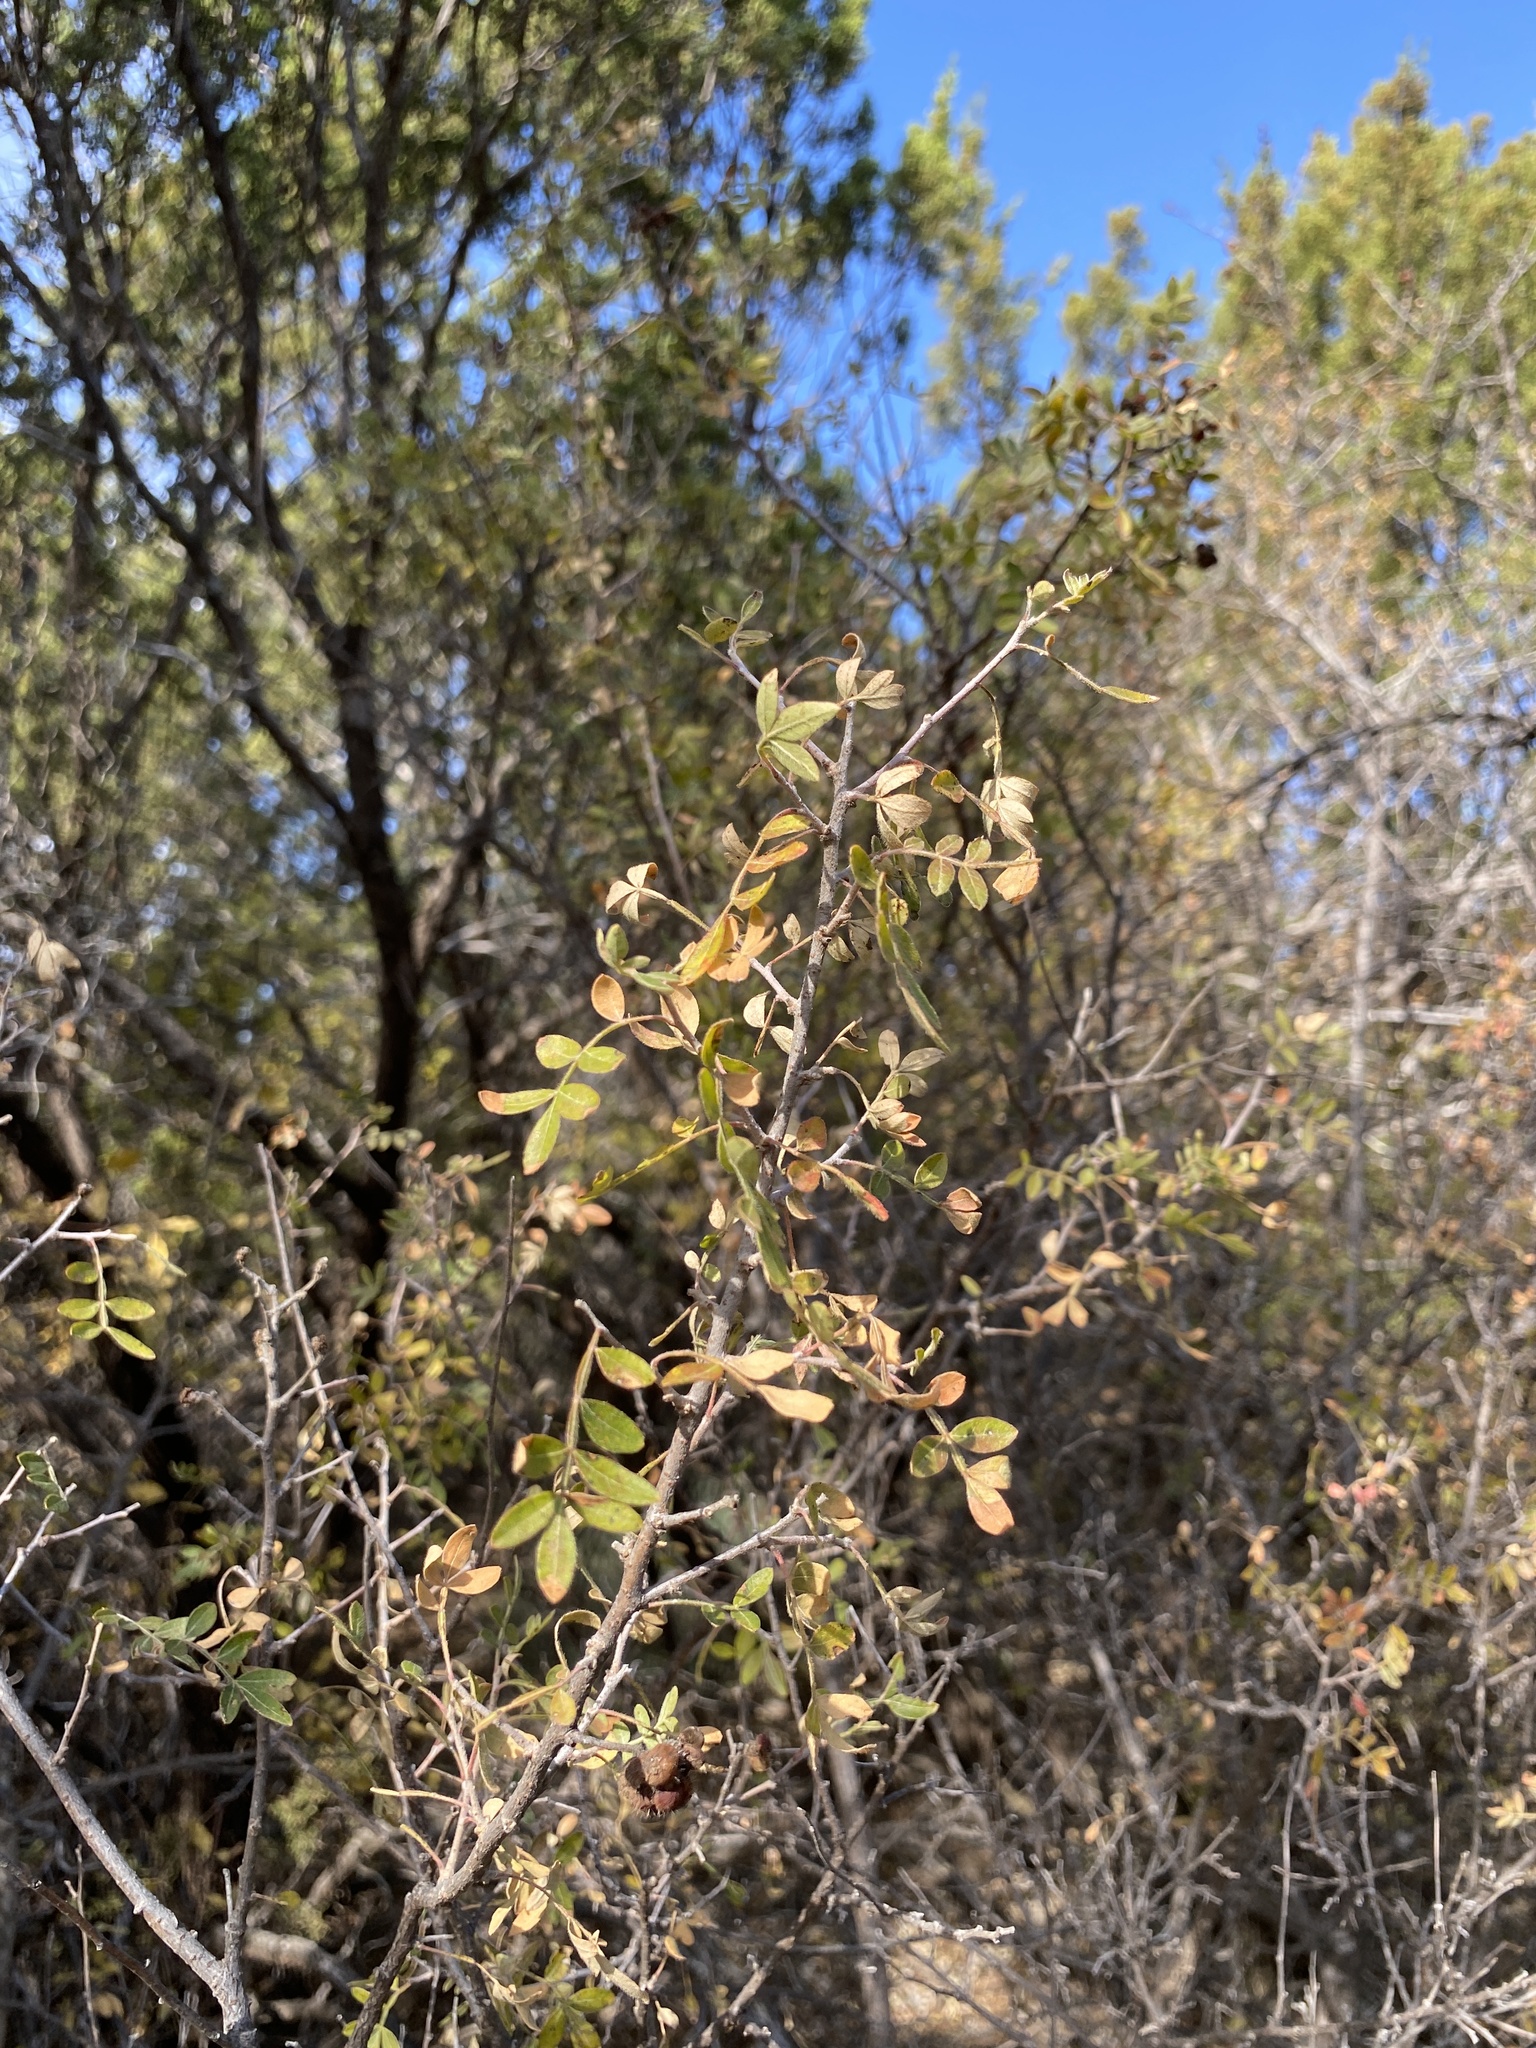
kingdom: Plantae
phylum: Tracheophyta
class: Magnoliopsida
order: Sapindales
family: Anacardiaceae
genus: Rhus
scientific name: Rhus microphylla
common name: Desert sumac
